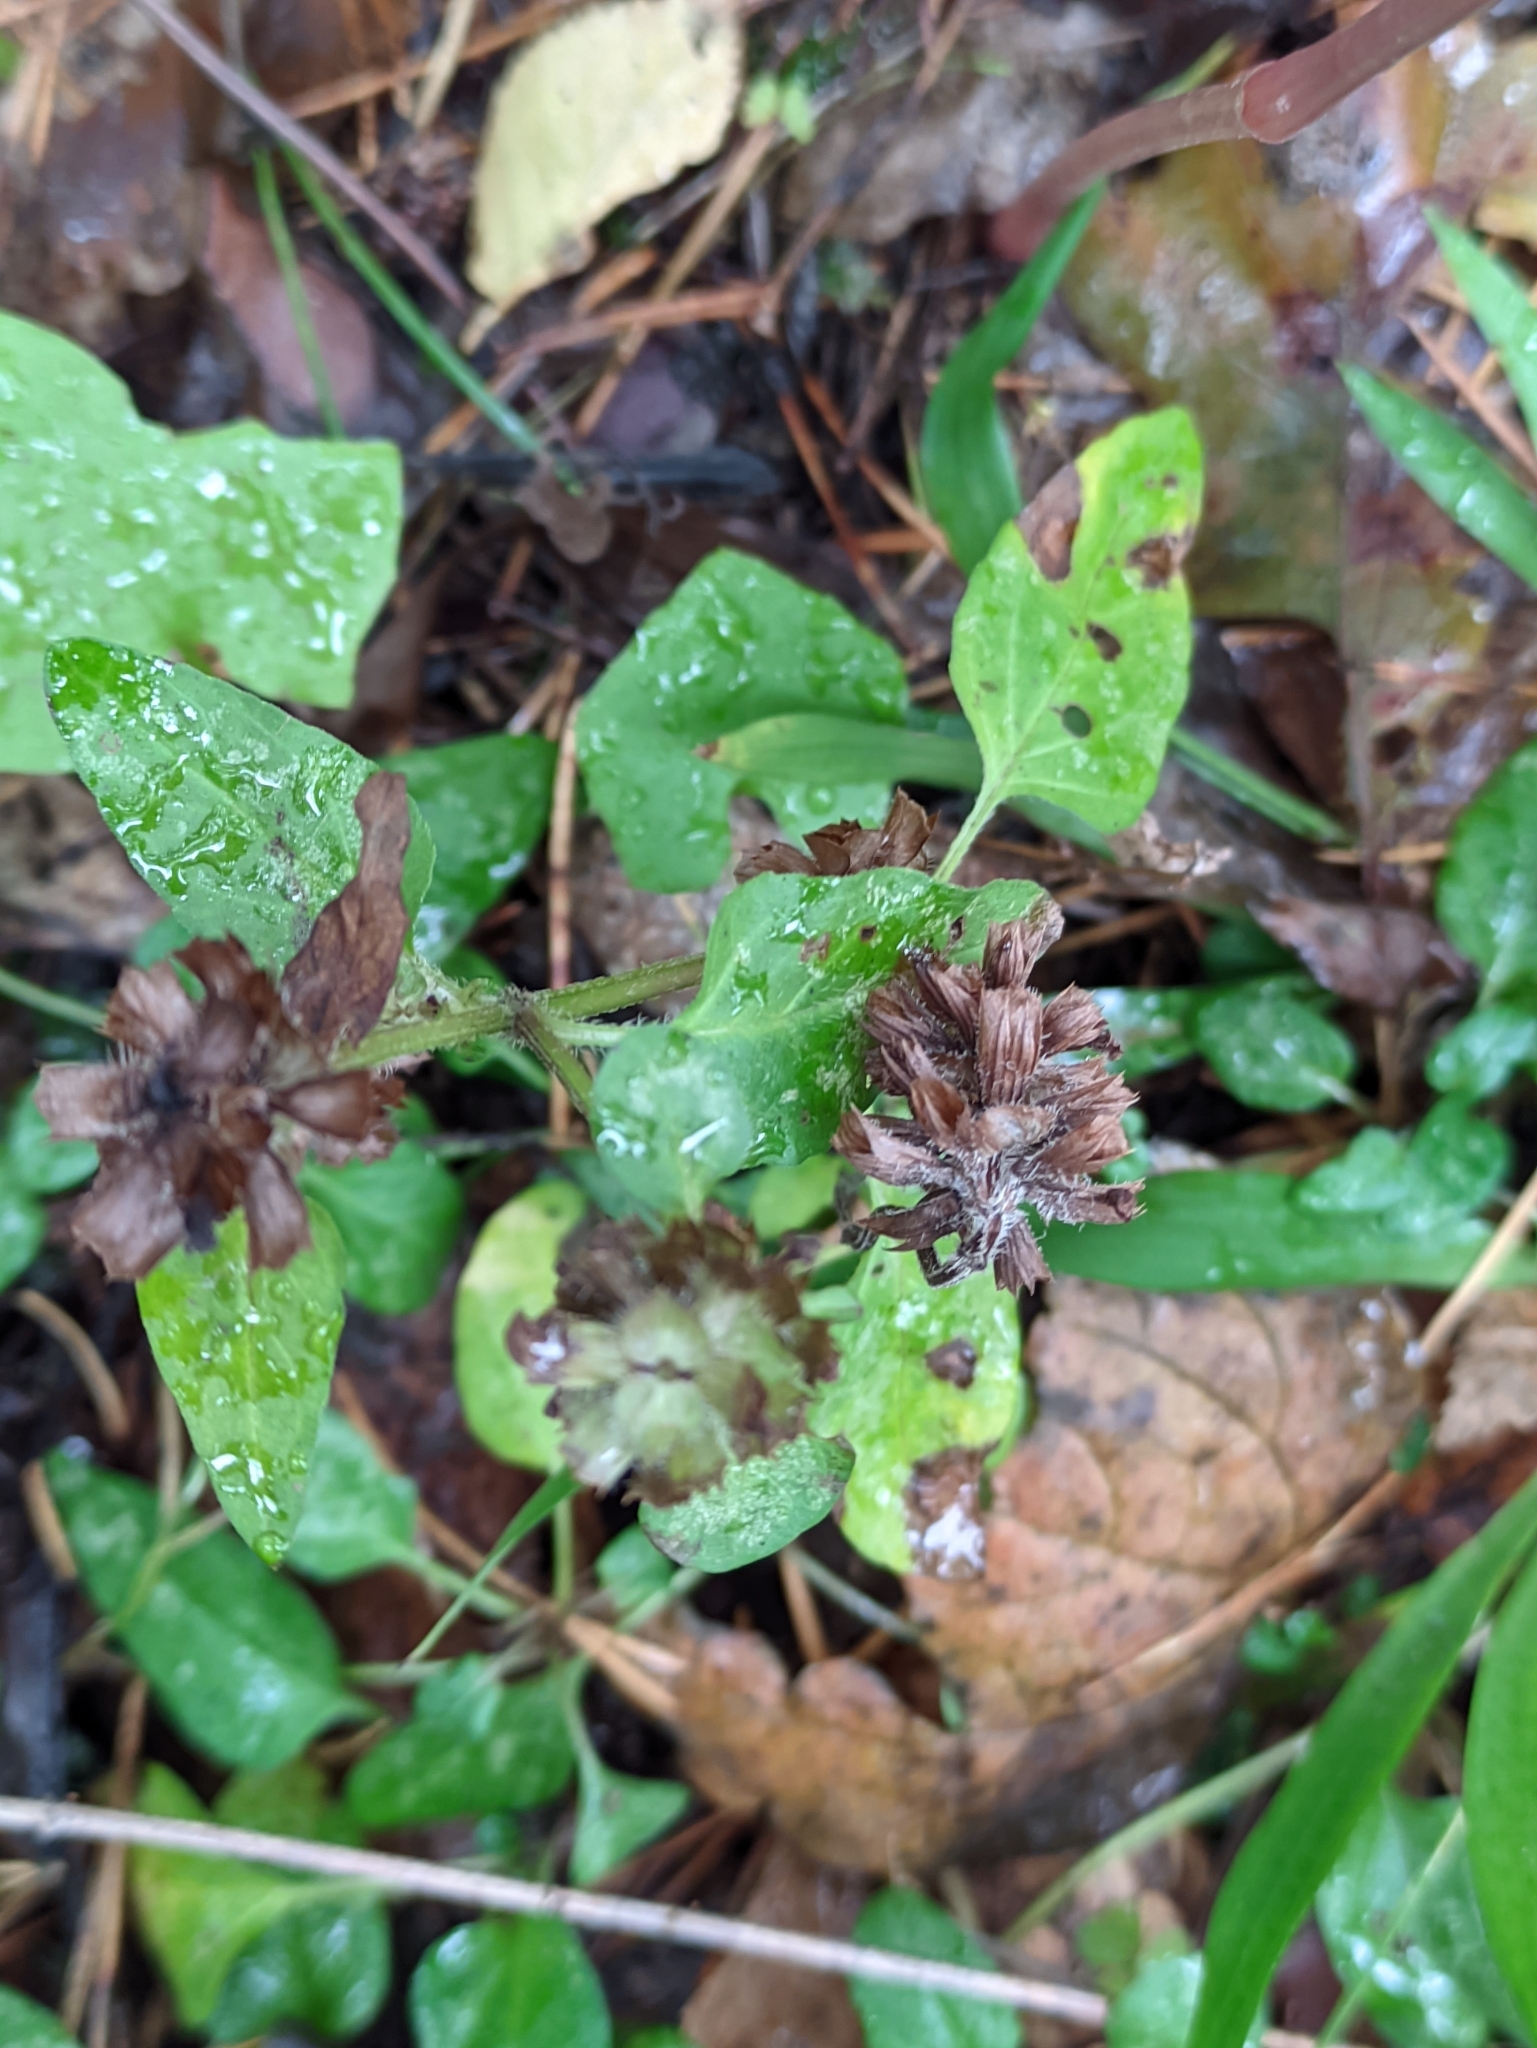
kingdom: Plantae
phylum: Tracheophyta
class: Magnoliopsida
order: Lamiales
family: Lamiaceae
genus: Prunella
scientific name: Prunella vulgaris
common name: Heal-all
